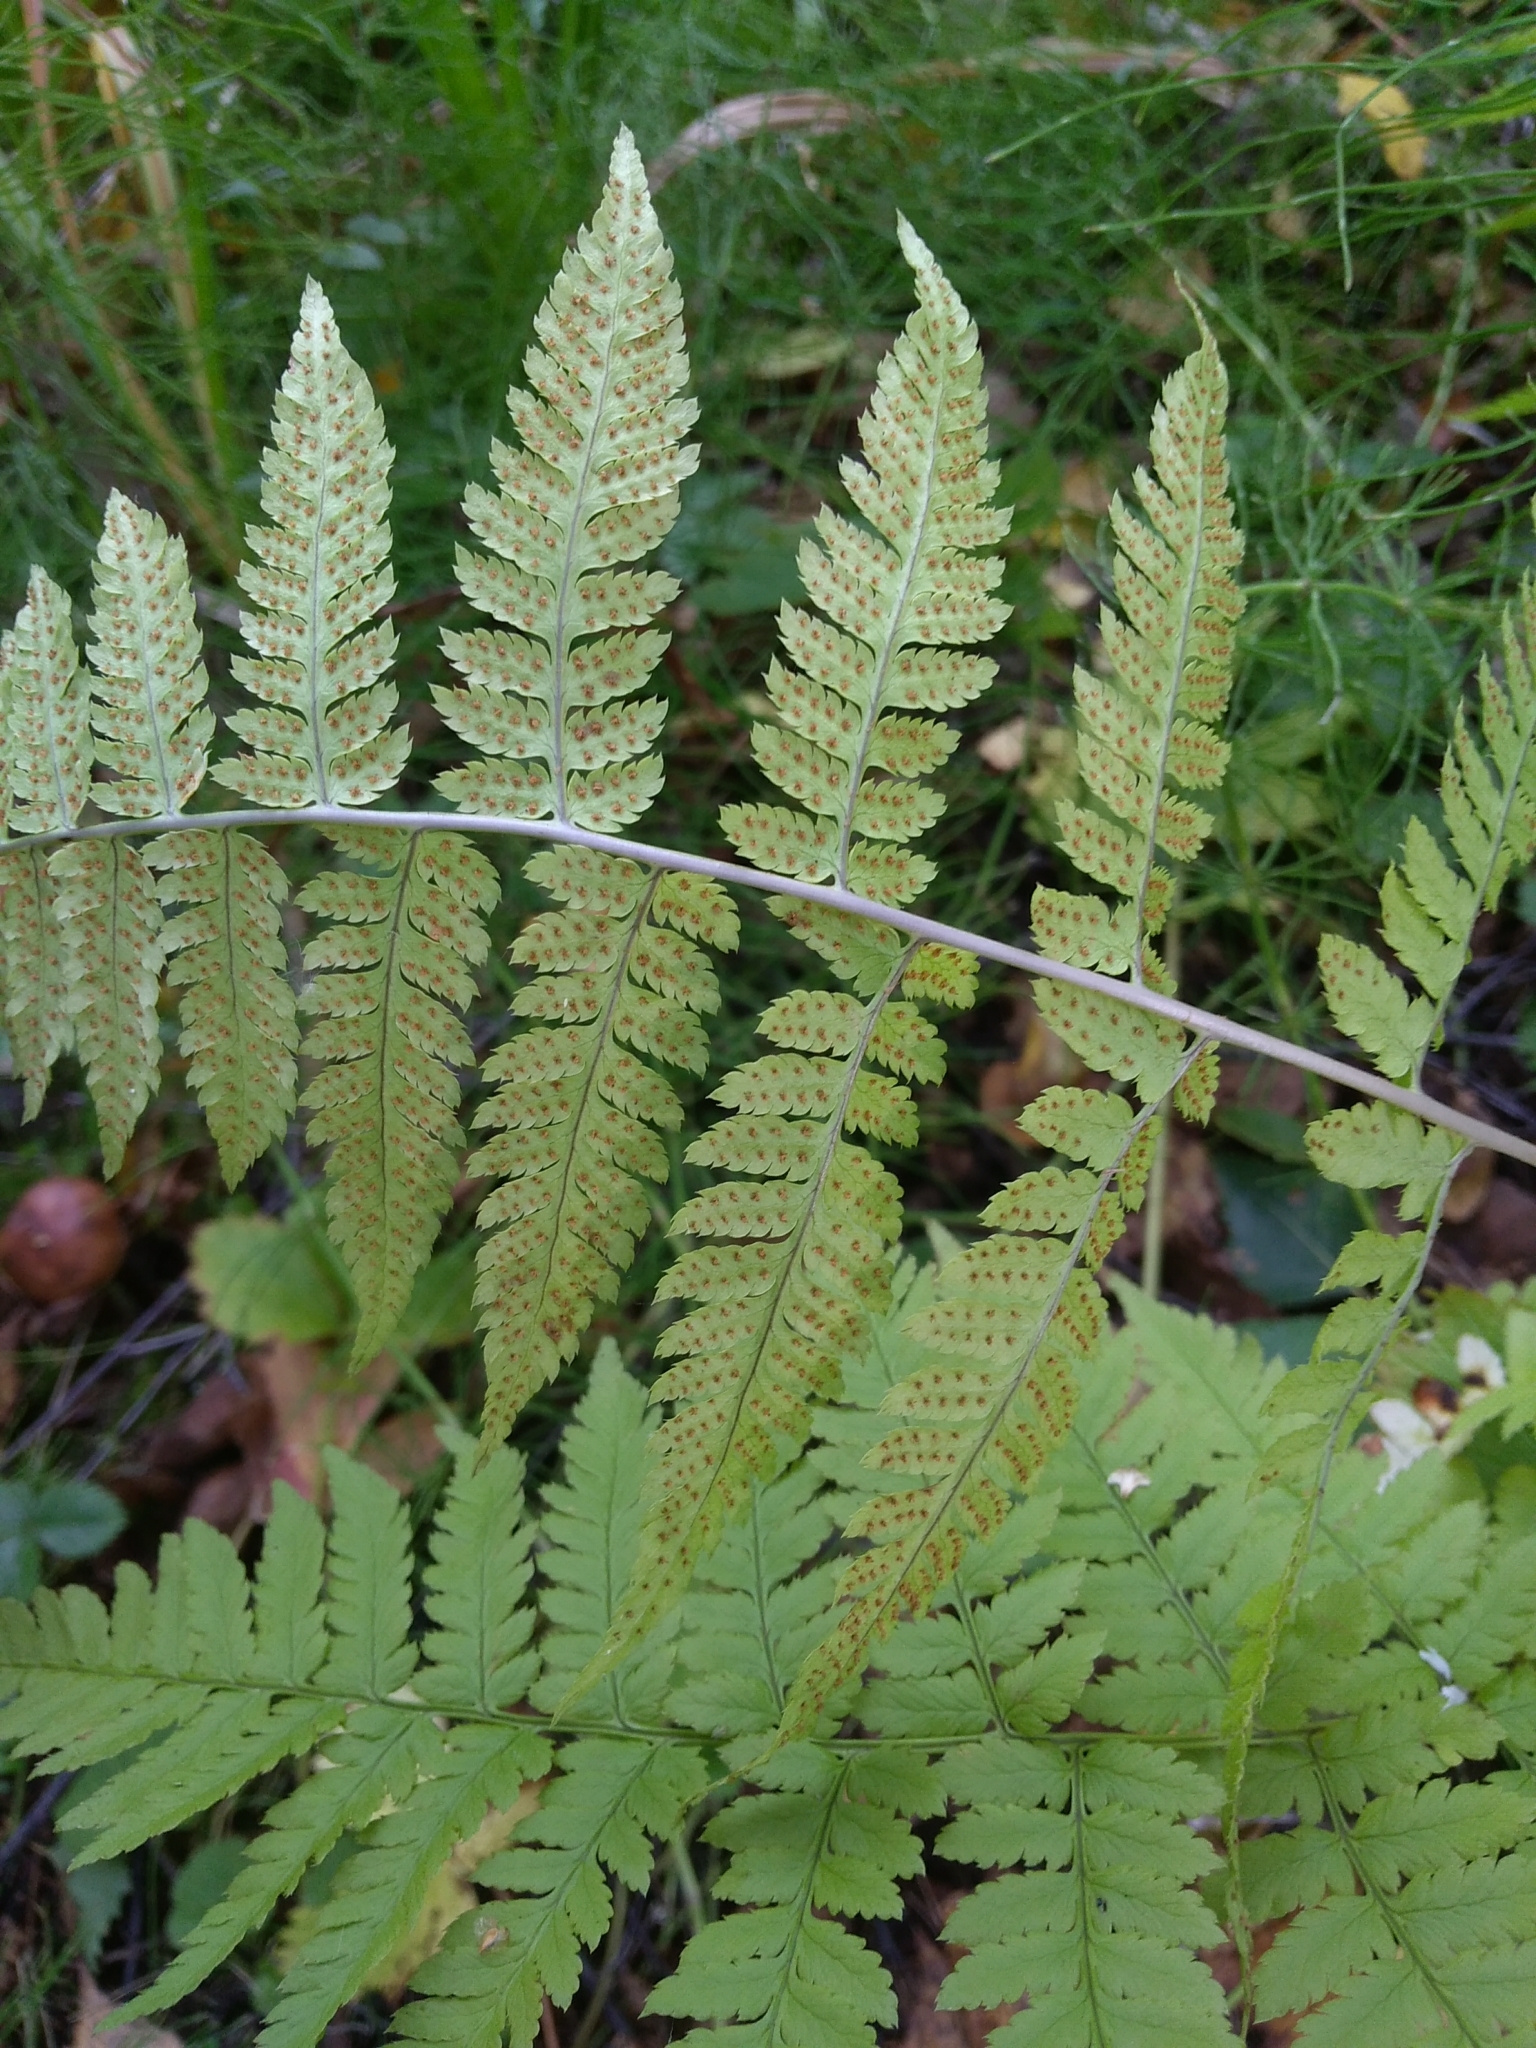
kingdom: Plantae
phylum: Tracheophyta
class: Polypodiopsida
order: Polypodiales
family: Dryopteridaceae
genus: Dryopteris
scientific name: Dryopteris carthusiana
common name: Narrow buckler-fern
